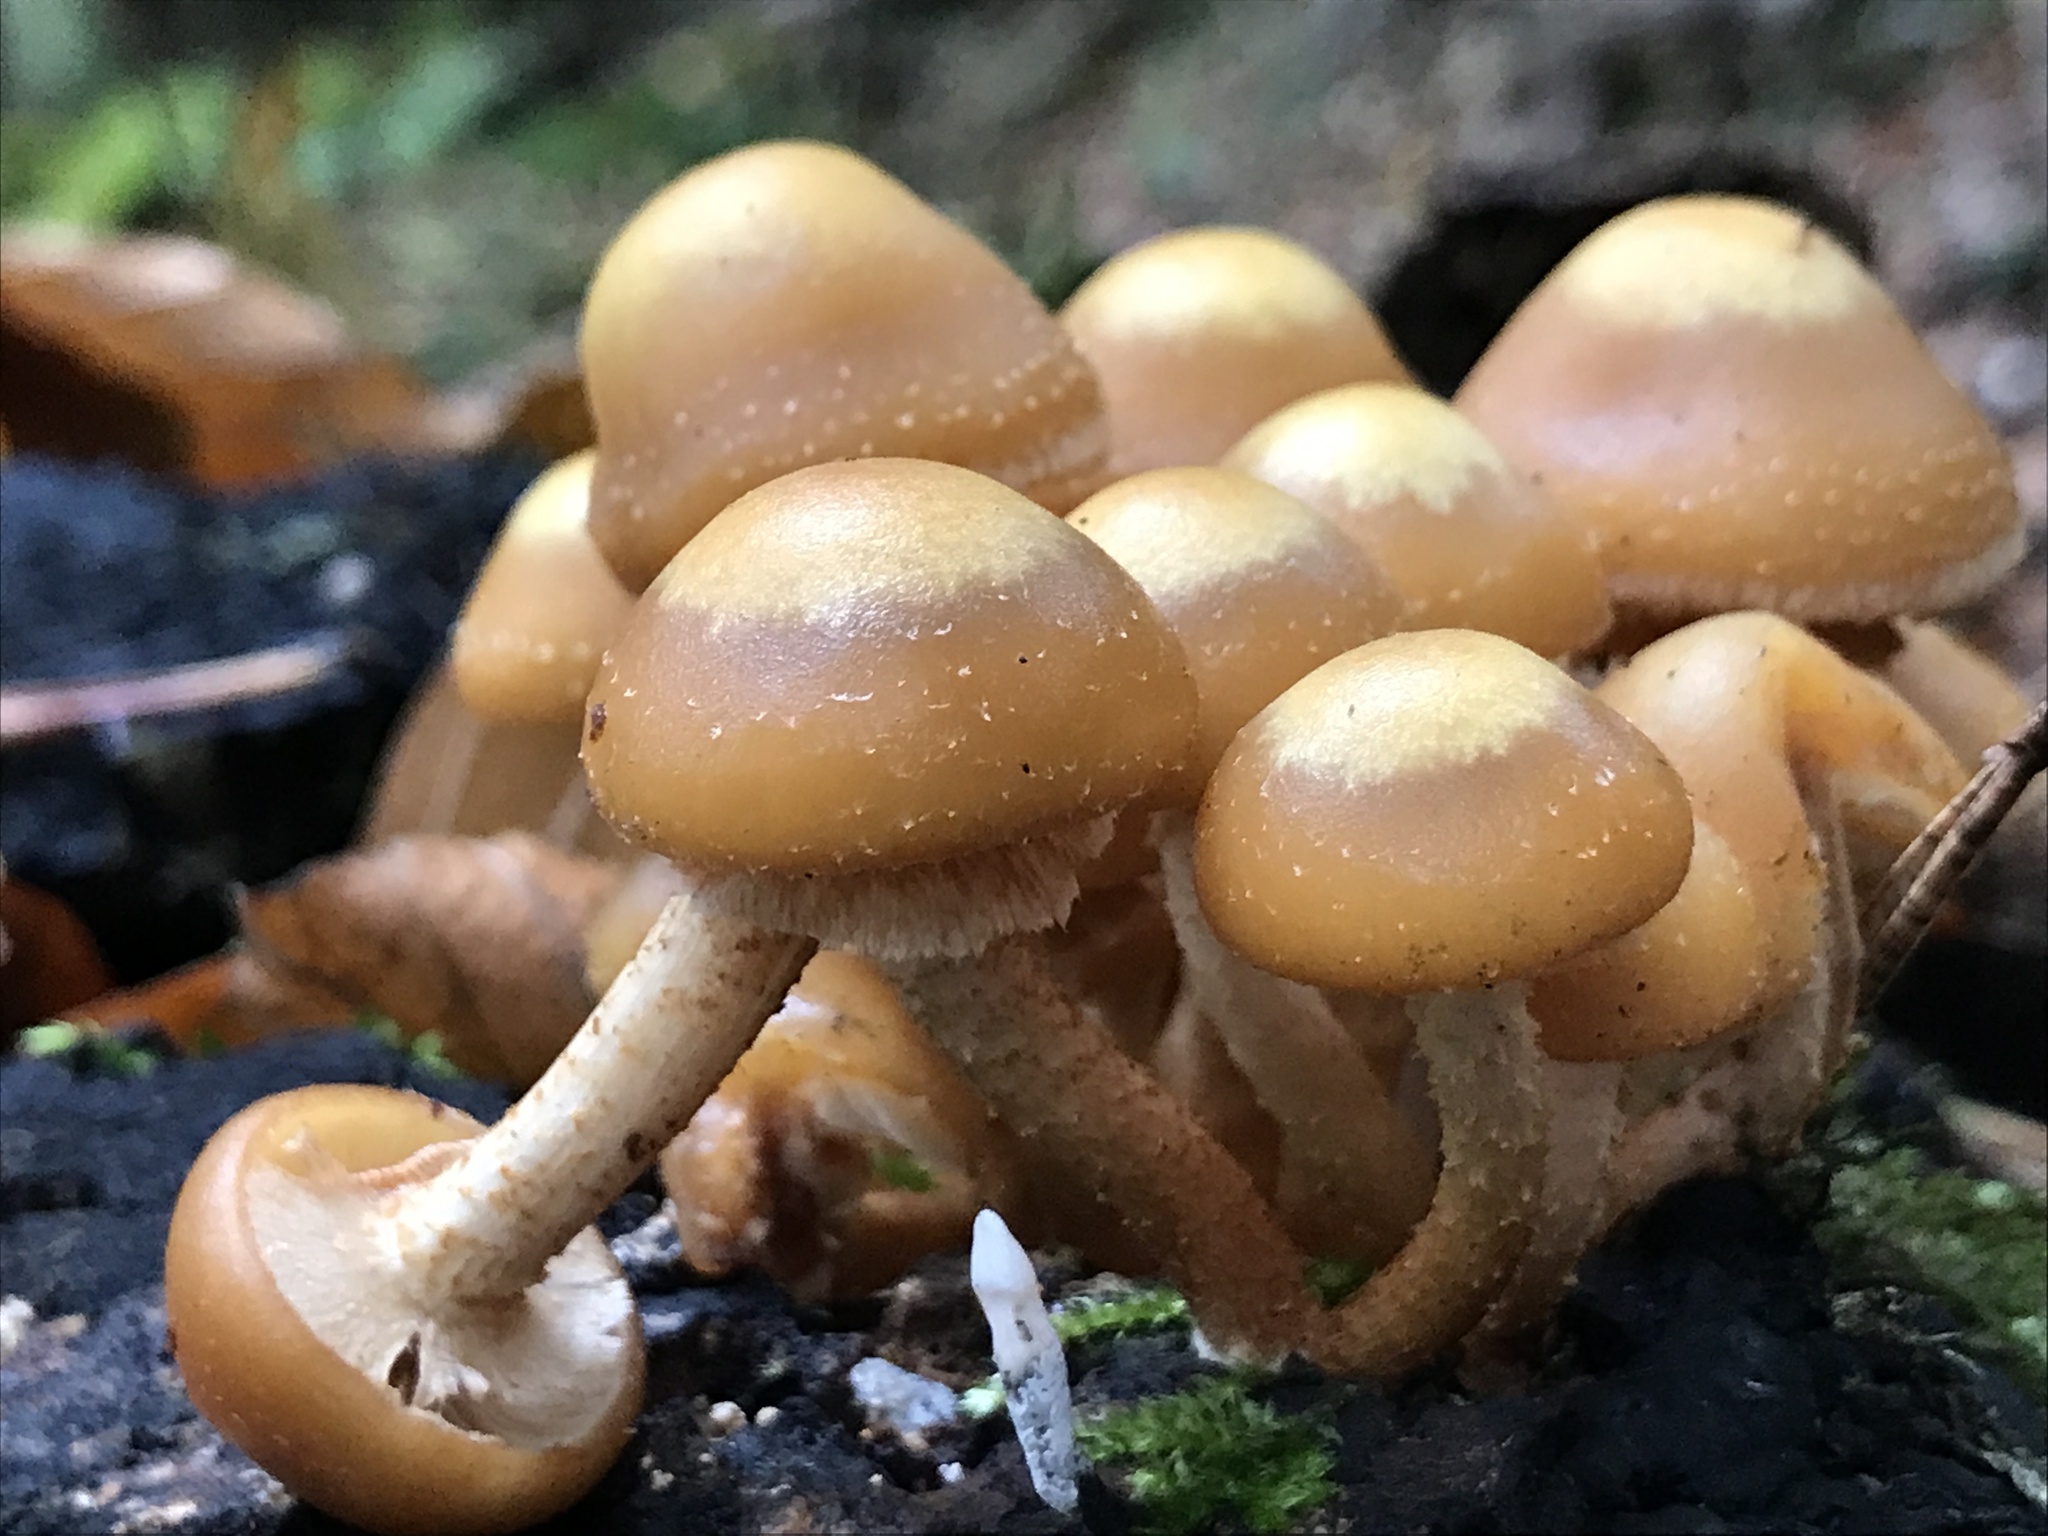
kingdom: Fungi
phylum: Basidiomycota
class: Agaricomycetes
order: Agaricales
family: Strophariaceae
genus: Kuehneromyces
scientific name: Kuehneromyces mutabilis
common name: Sheathed woodtuft
